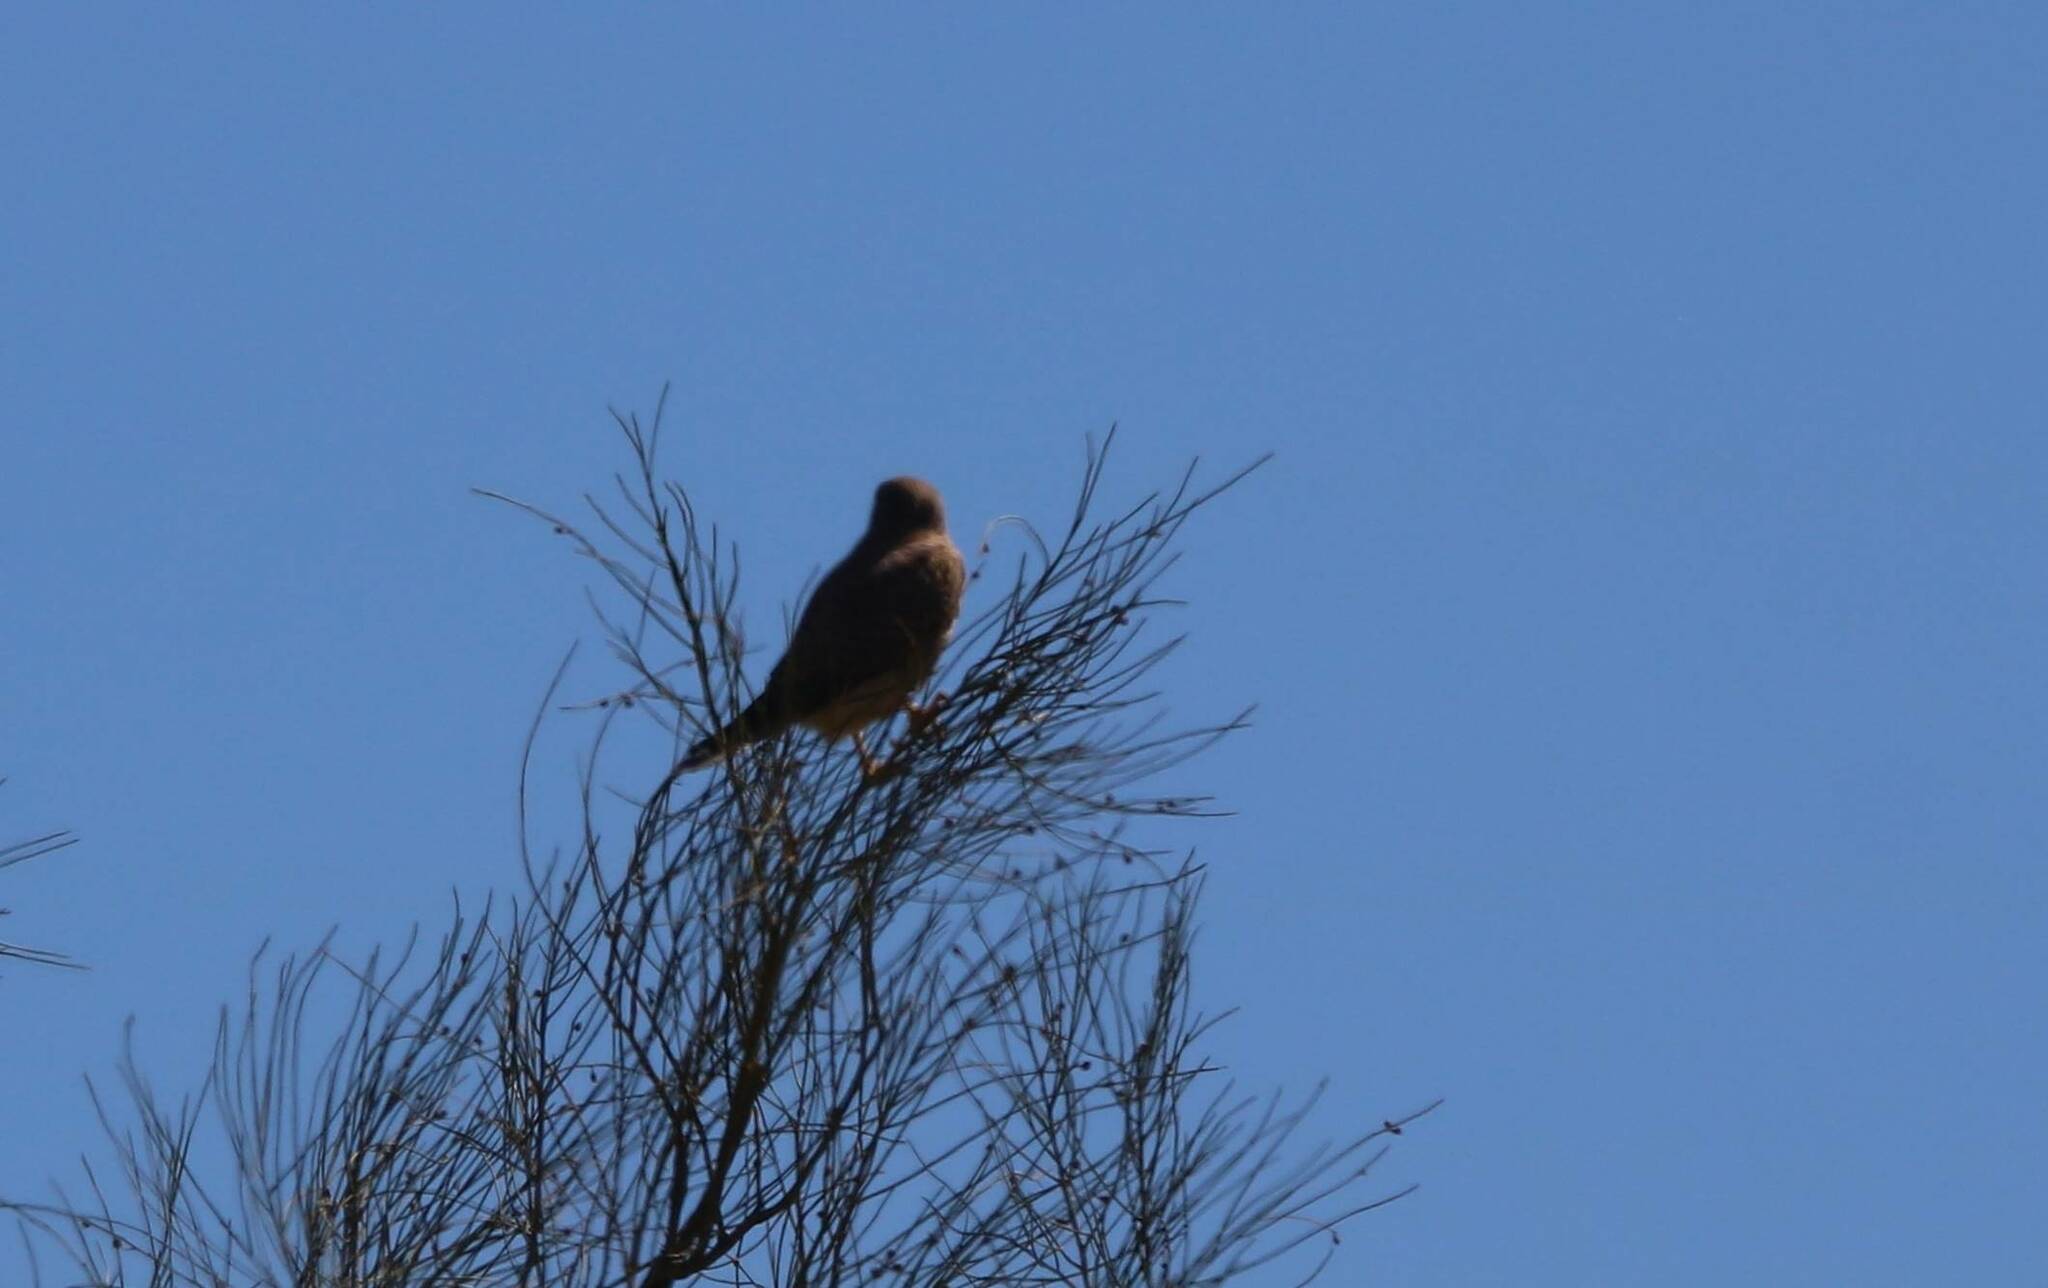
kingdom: Animalia
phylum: Chordata
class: Aves
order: Falconiformes
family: Falconidae
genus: Falco
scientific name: Falco tinnunculus
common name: Common kestrel
